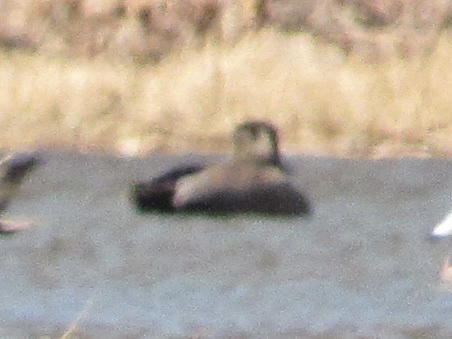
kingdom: Animalia
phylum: Chordata
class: Aves
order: Anseriformes
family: Anatidae
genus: Mareca
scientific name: Mareca strepera
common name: Gadwall
